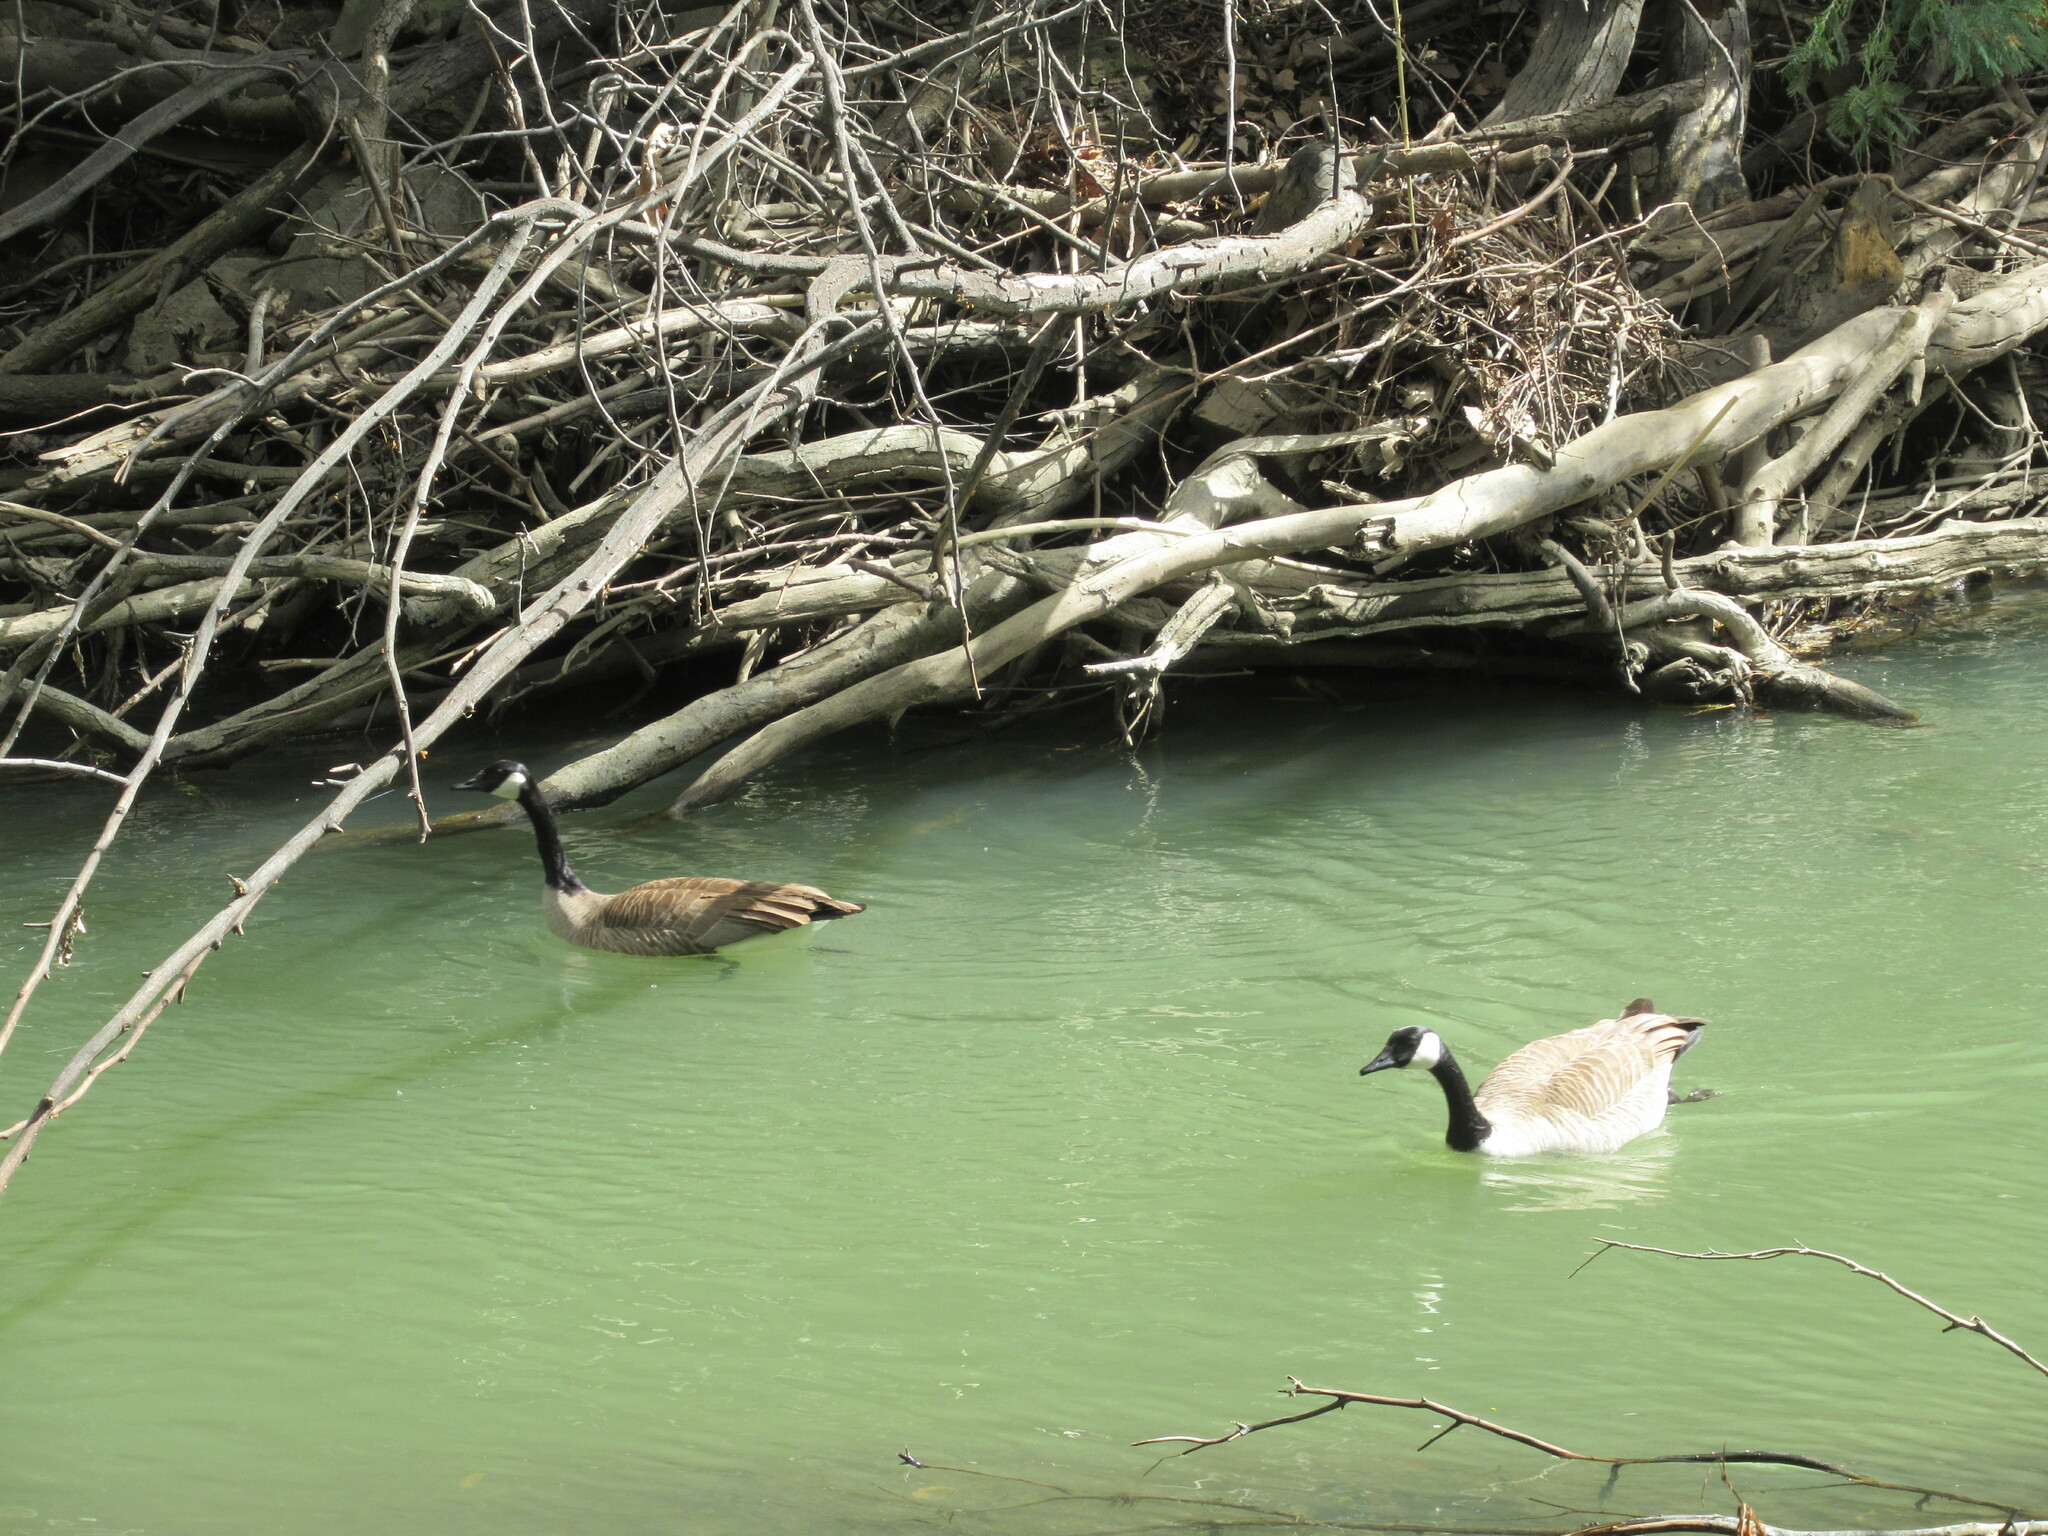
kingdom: Animalia
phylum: Chordata
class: Aves
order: Anseriformes
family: Anatidae
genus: Branta
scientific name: Branta canadensis
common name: Canada goose
